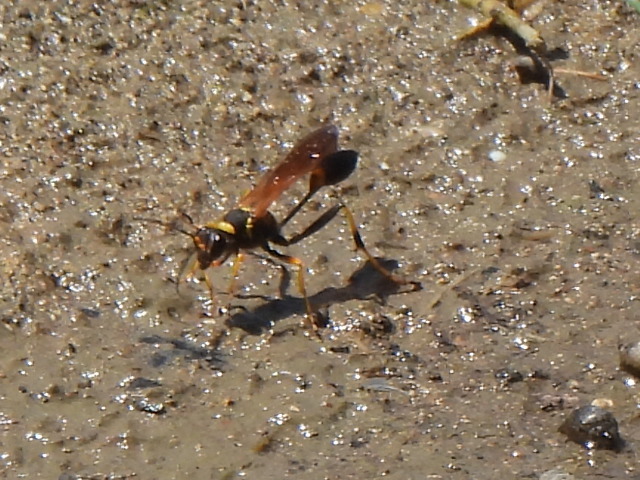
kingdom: Animalia
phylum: Arthropoda
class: Insecta
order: Hymenoptera
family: Sphecidae
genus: Sceliphron
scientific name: Sceliphron caementarium
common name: Mud dauber
